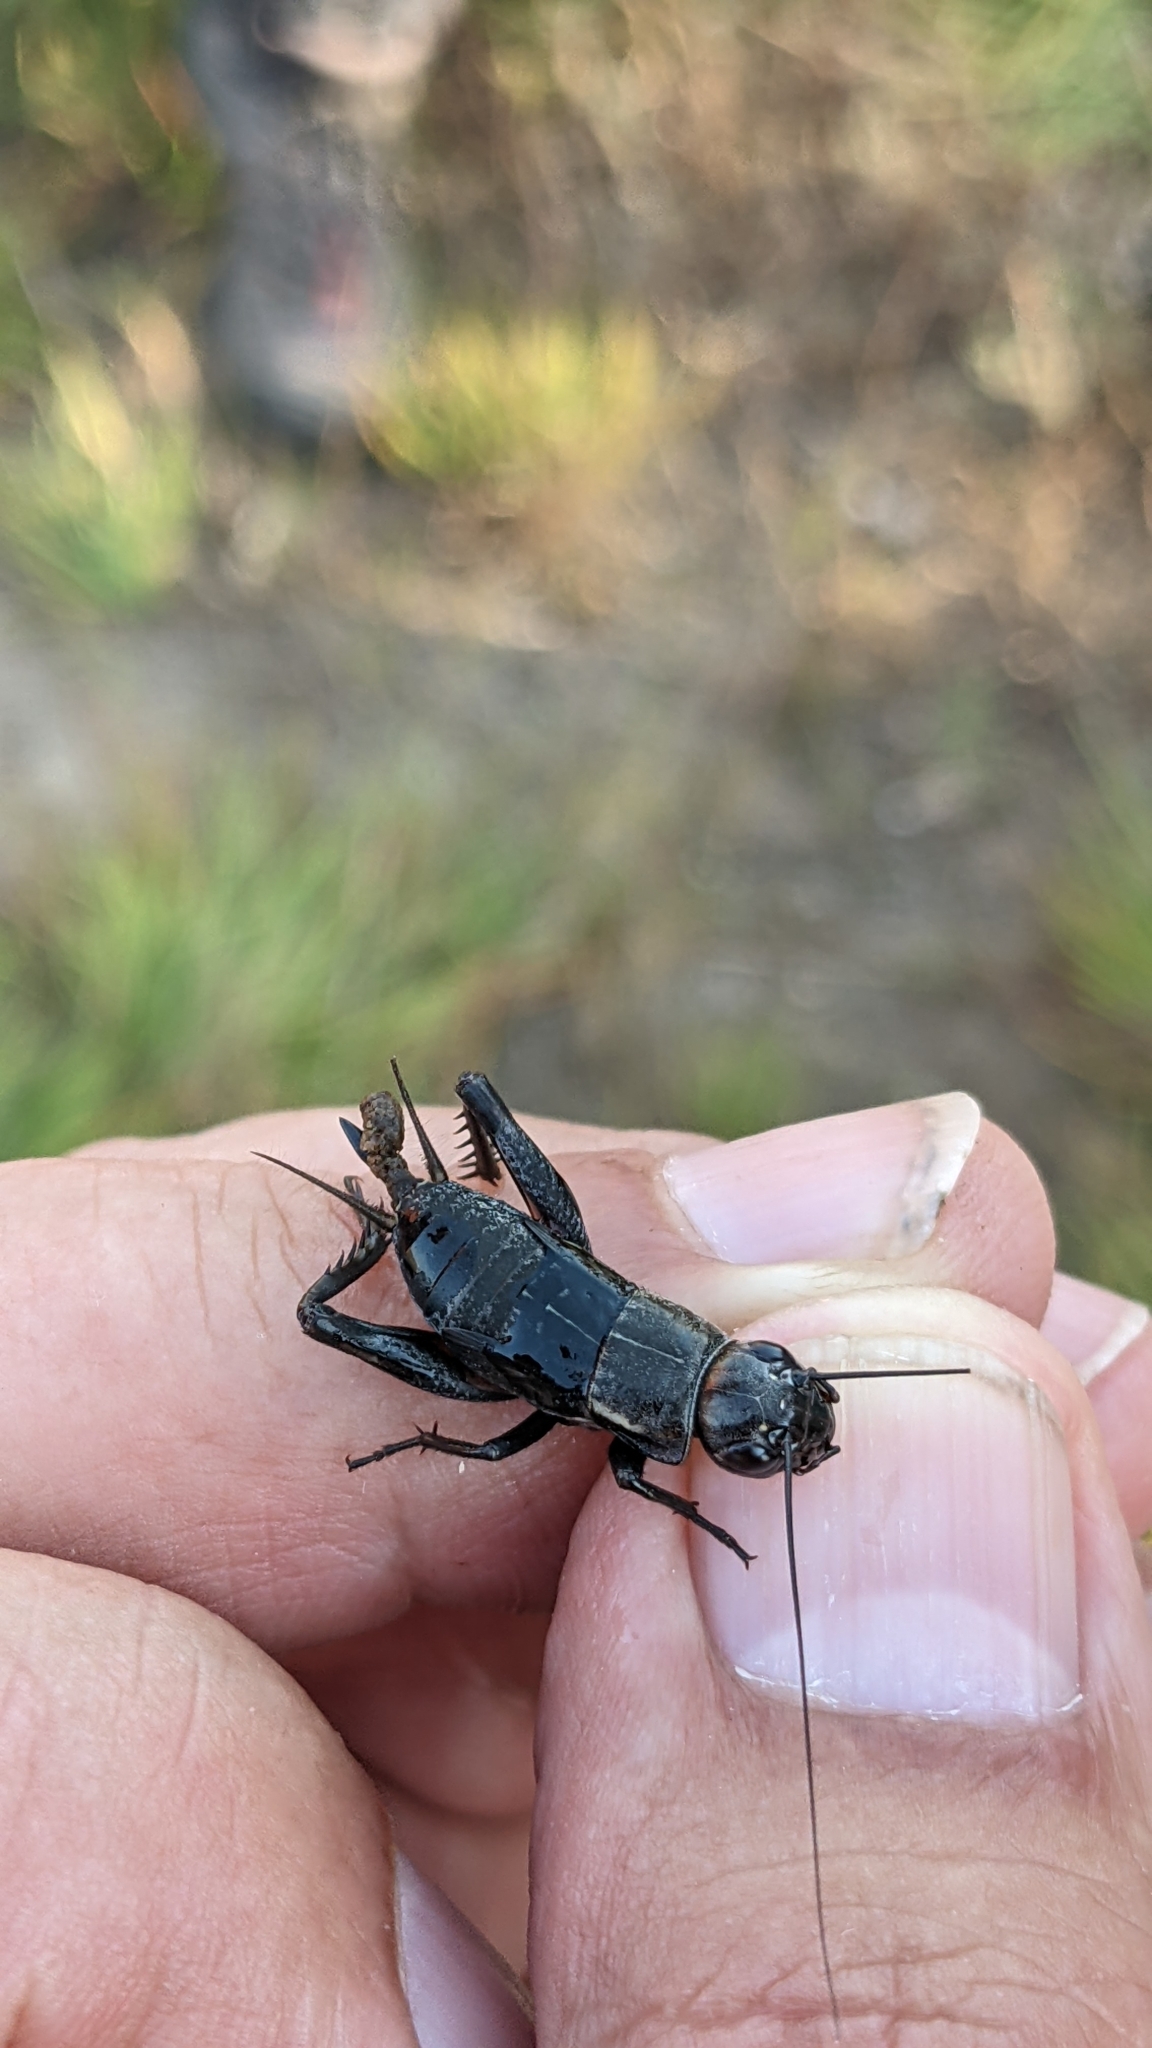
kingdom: Animalia
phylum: Arthropoda
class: Insecta
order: Orthoptera
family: Gryllidae
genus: Gryllus
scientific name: Gryllus bimaculatus
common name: Two-spotted cricket
